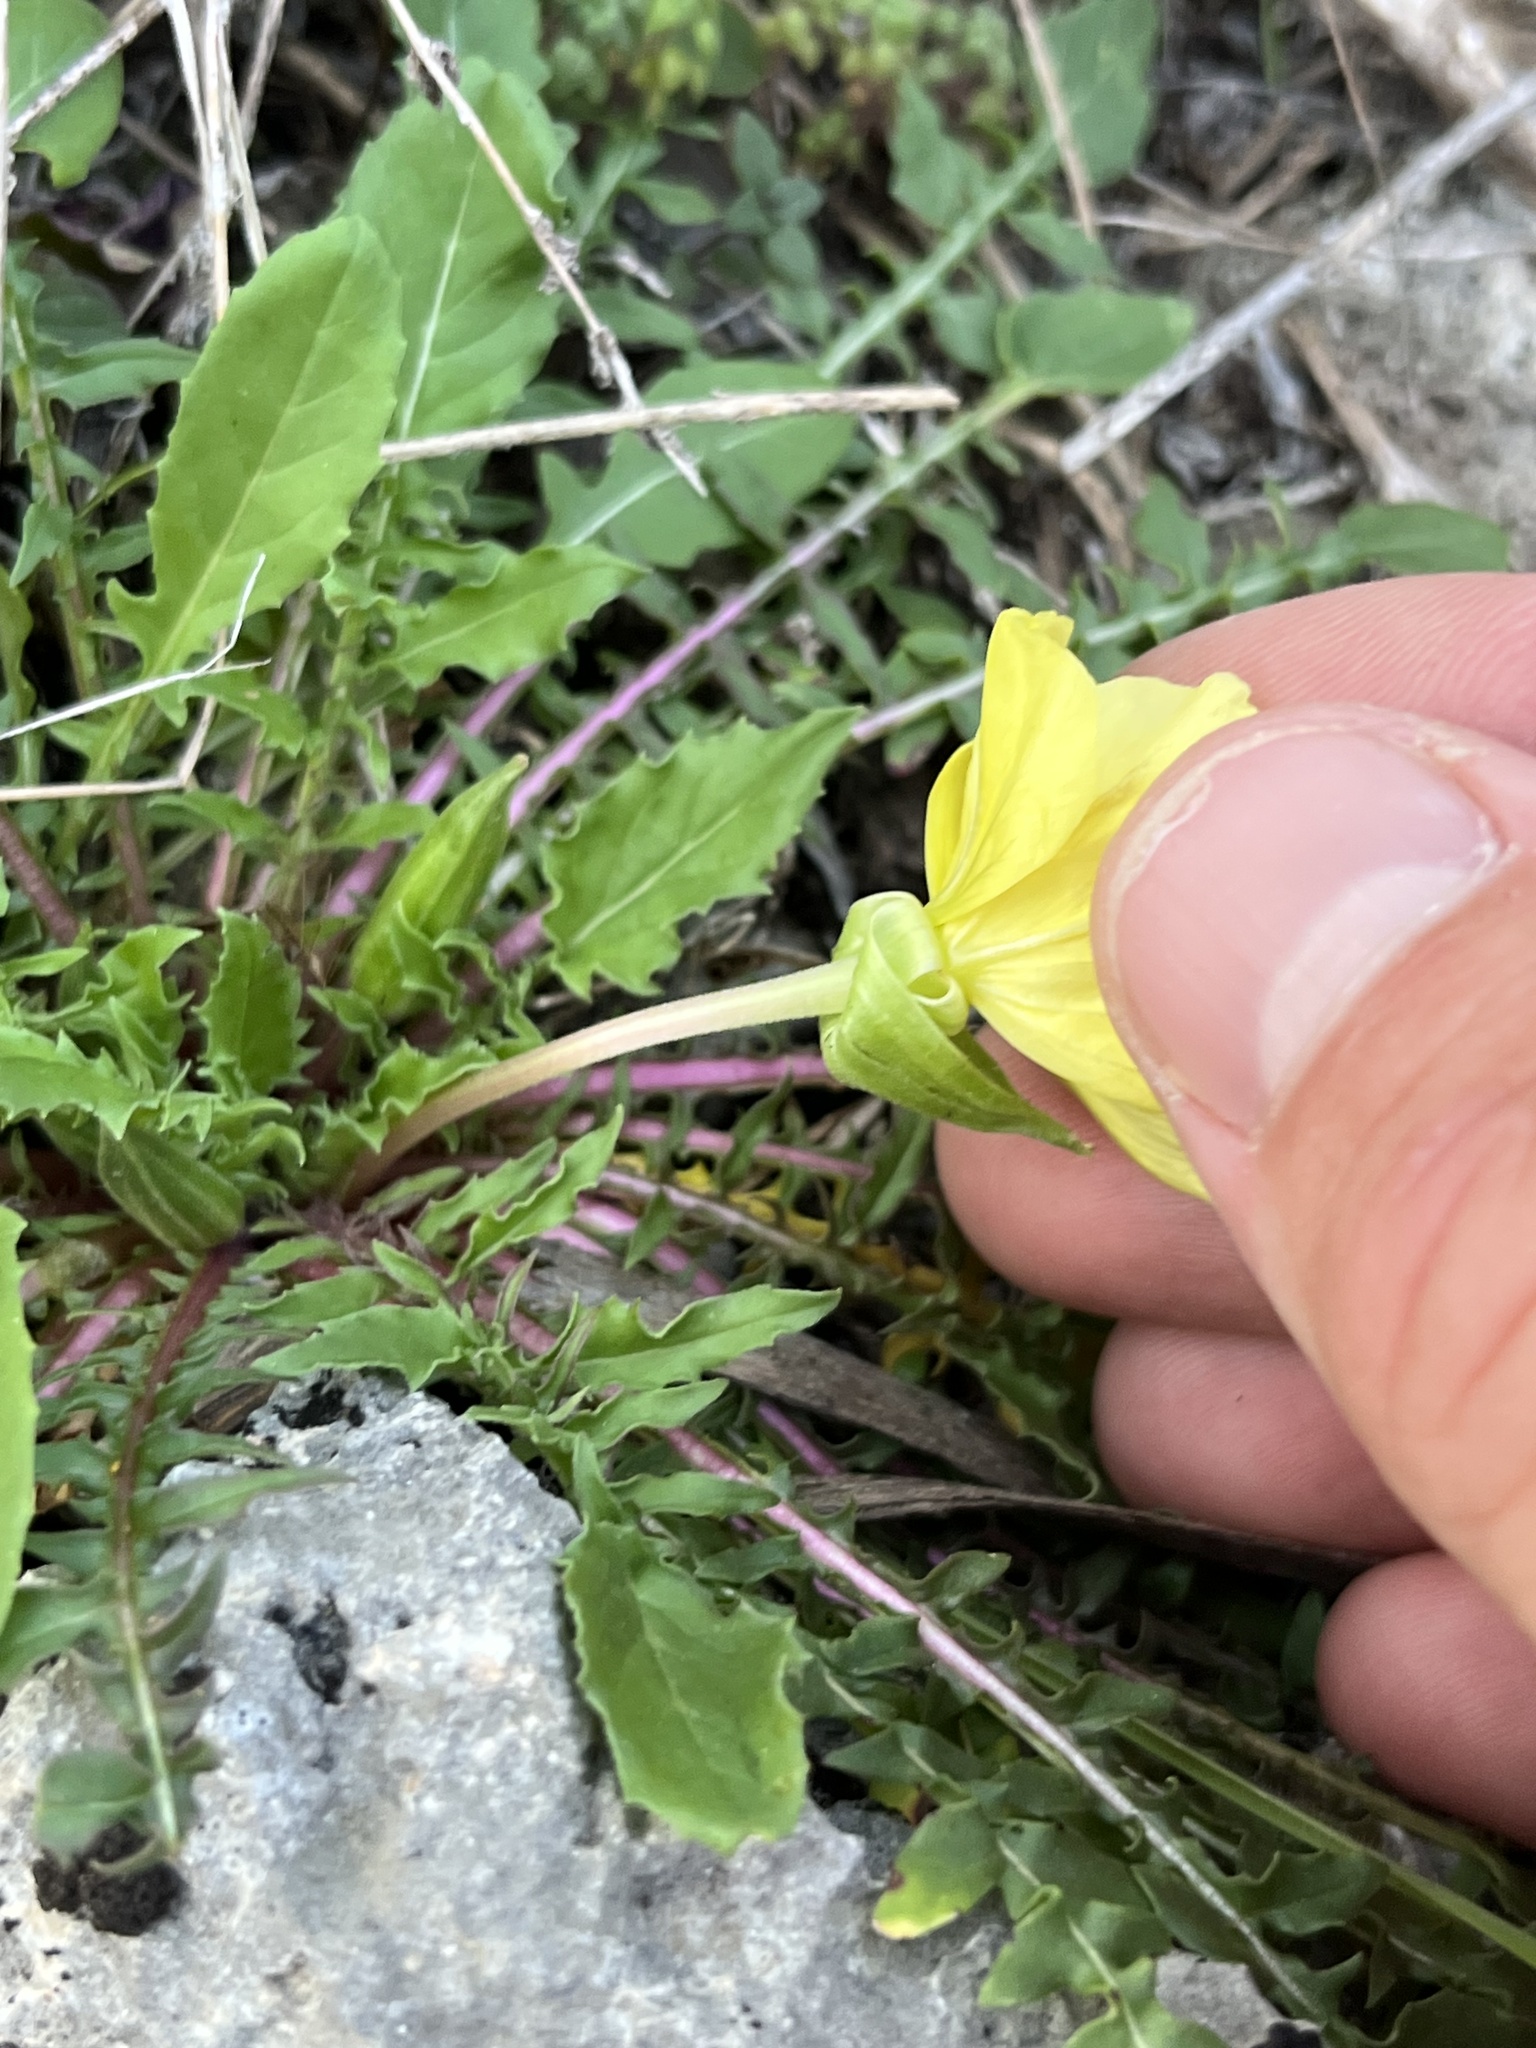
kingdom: Plantae
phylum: Tracheophyta
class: Magnoliopsida
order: Myrtales
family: Onagraceae
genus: Oenothera
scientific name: Oenothera triloba
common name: Sessile evening-primrose
